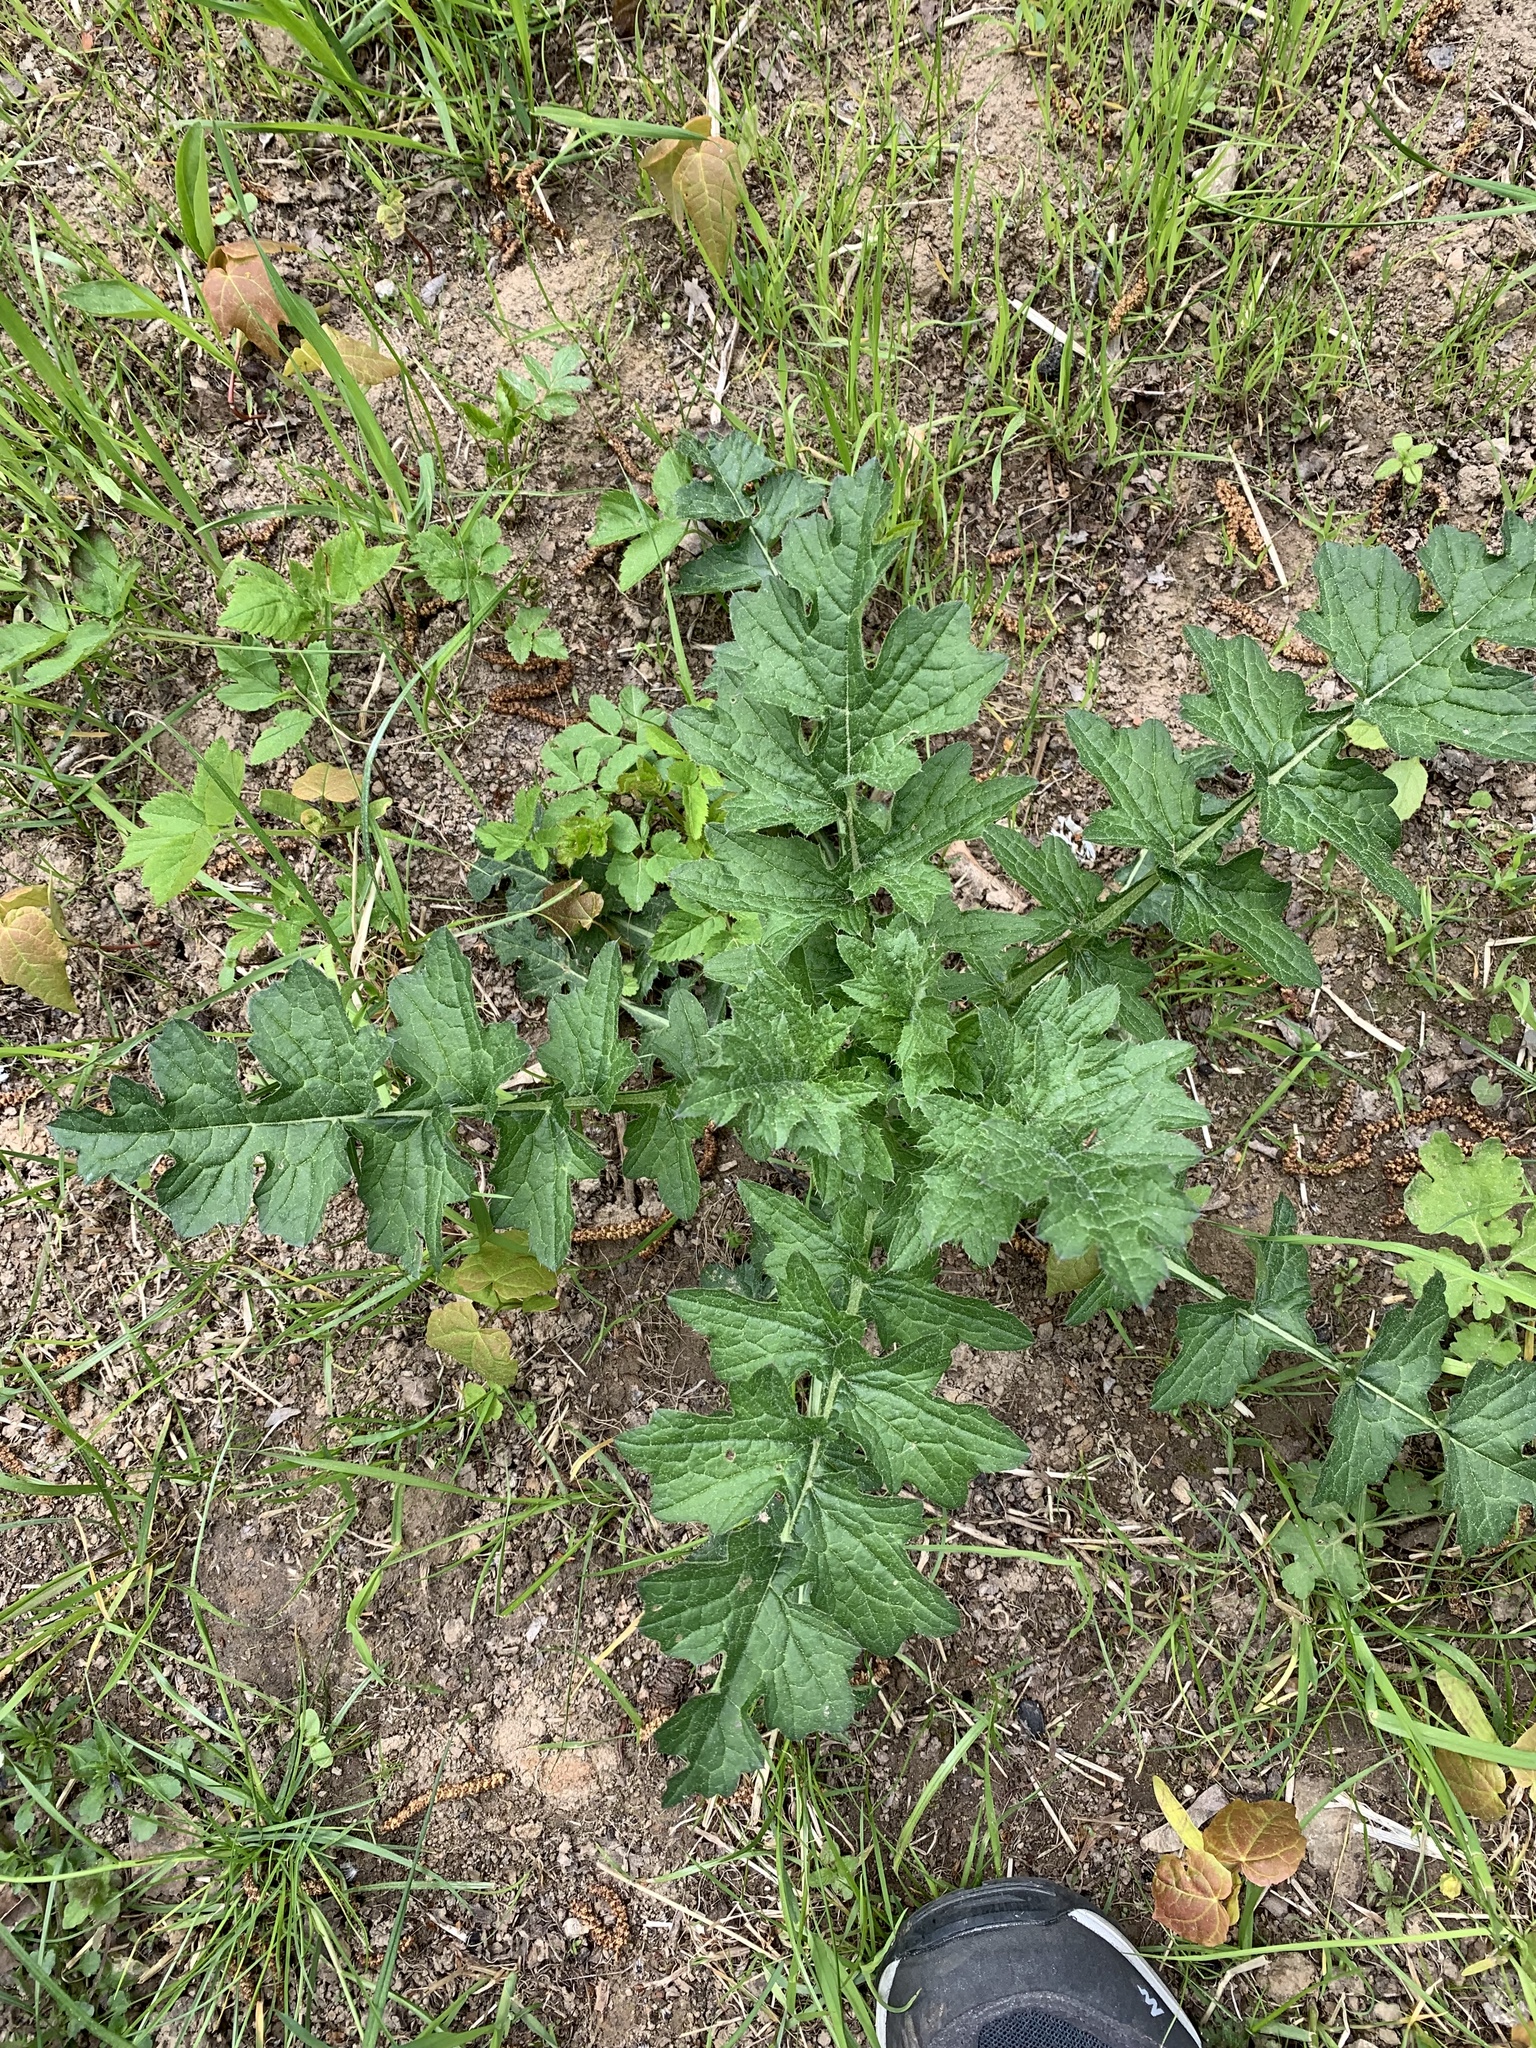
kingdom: Plantae
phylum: Tracheophyta
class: Magnoliopsida
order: Asterales
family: Asteraceae
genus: Carduus
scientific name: Carduus crispus
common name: Welted thistle
